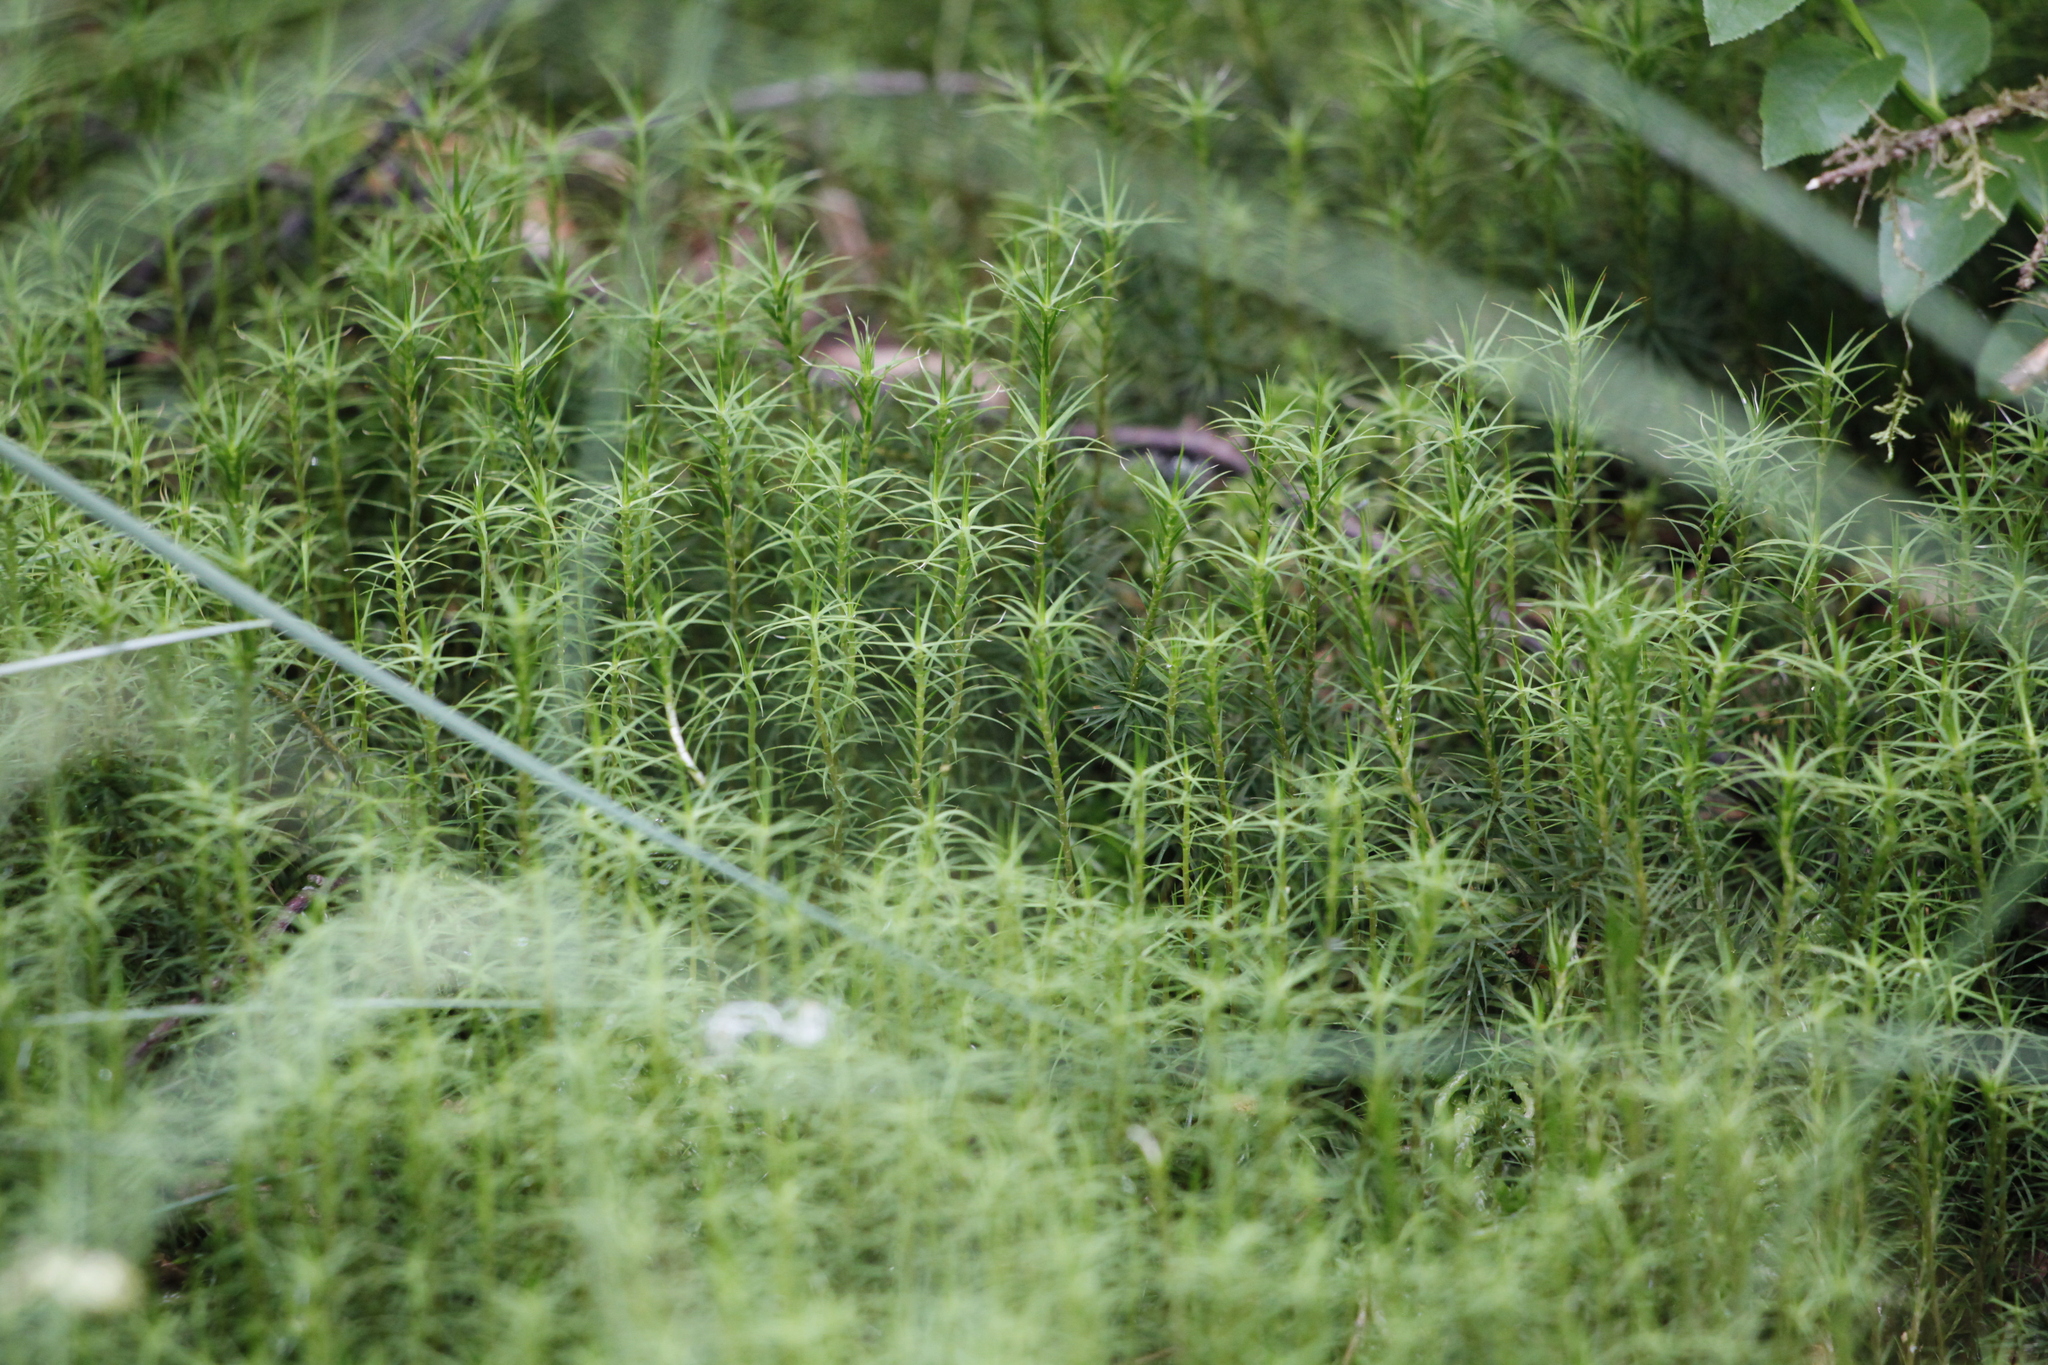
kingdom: Plantae
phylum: Bryophyta
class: Polytrichopsida
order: Polytrichales
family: Polytrichaceae
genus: Polytrichum
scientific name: Polytrichum commune
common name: Common haircap
